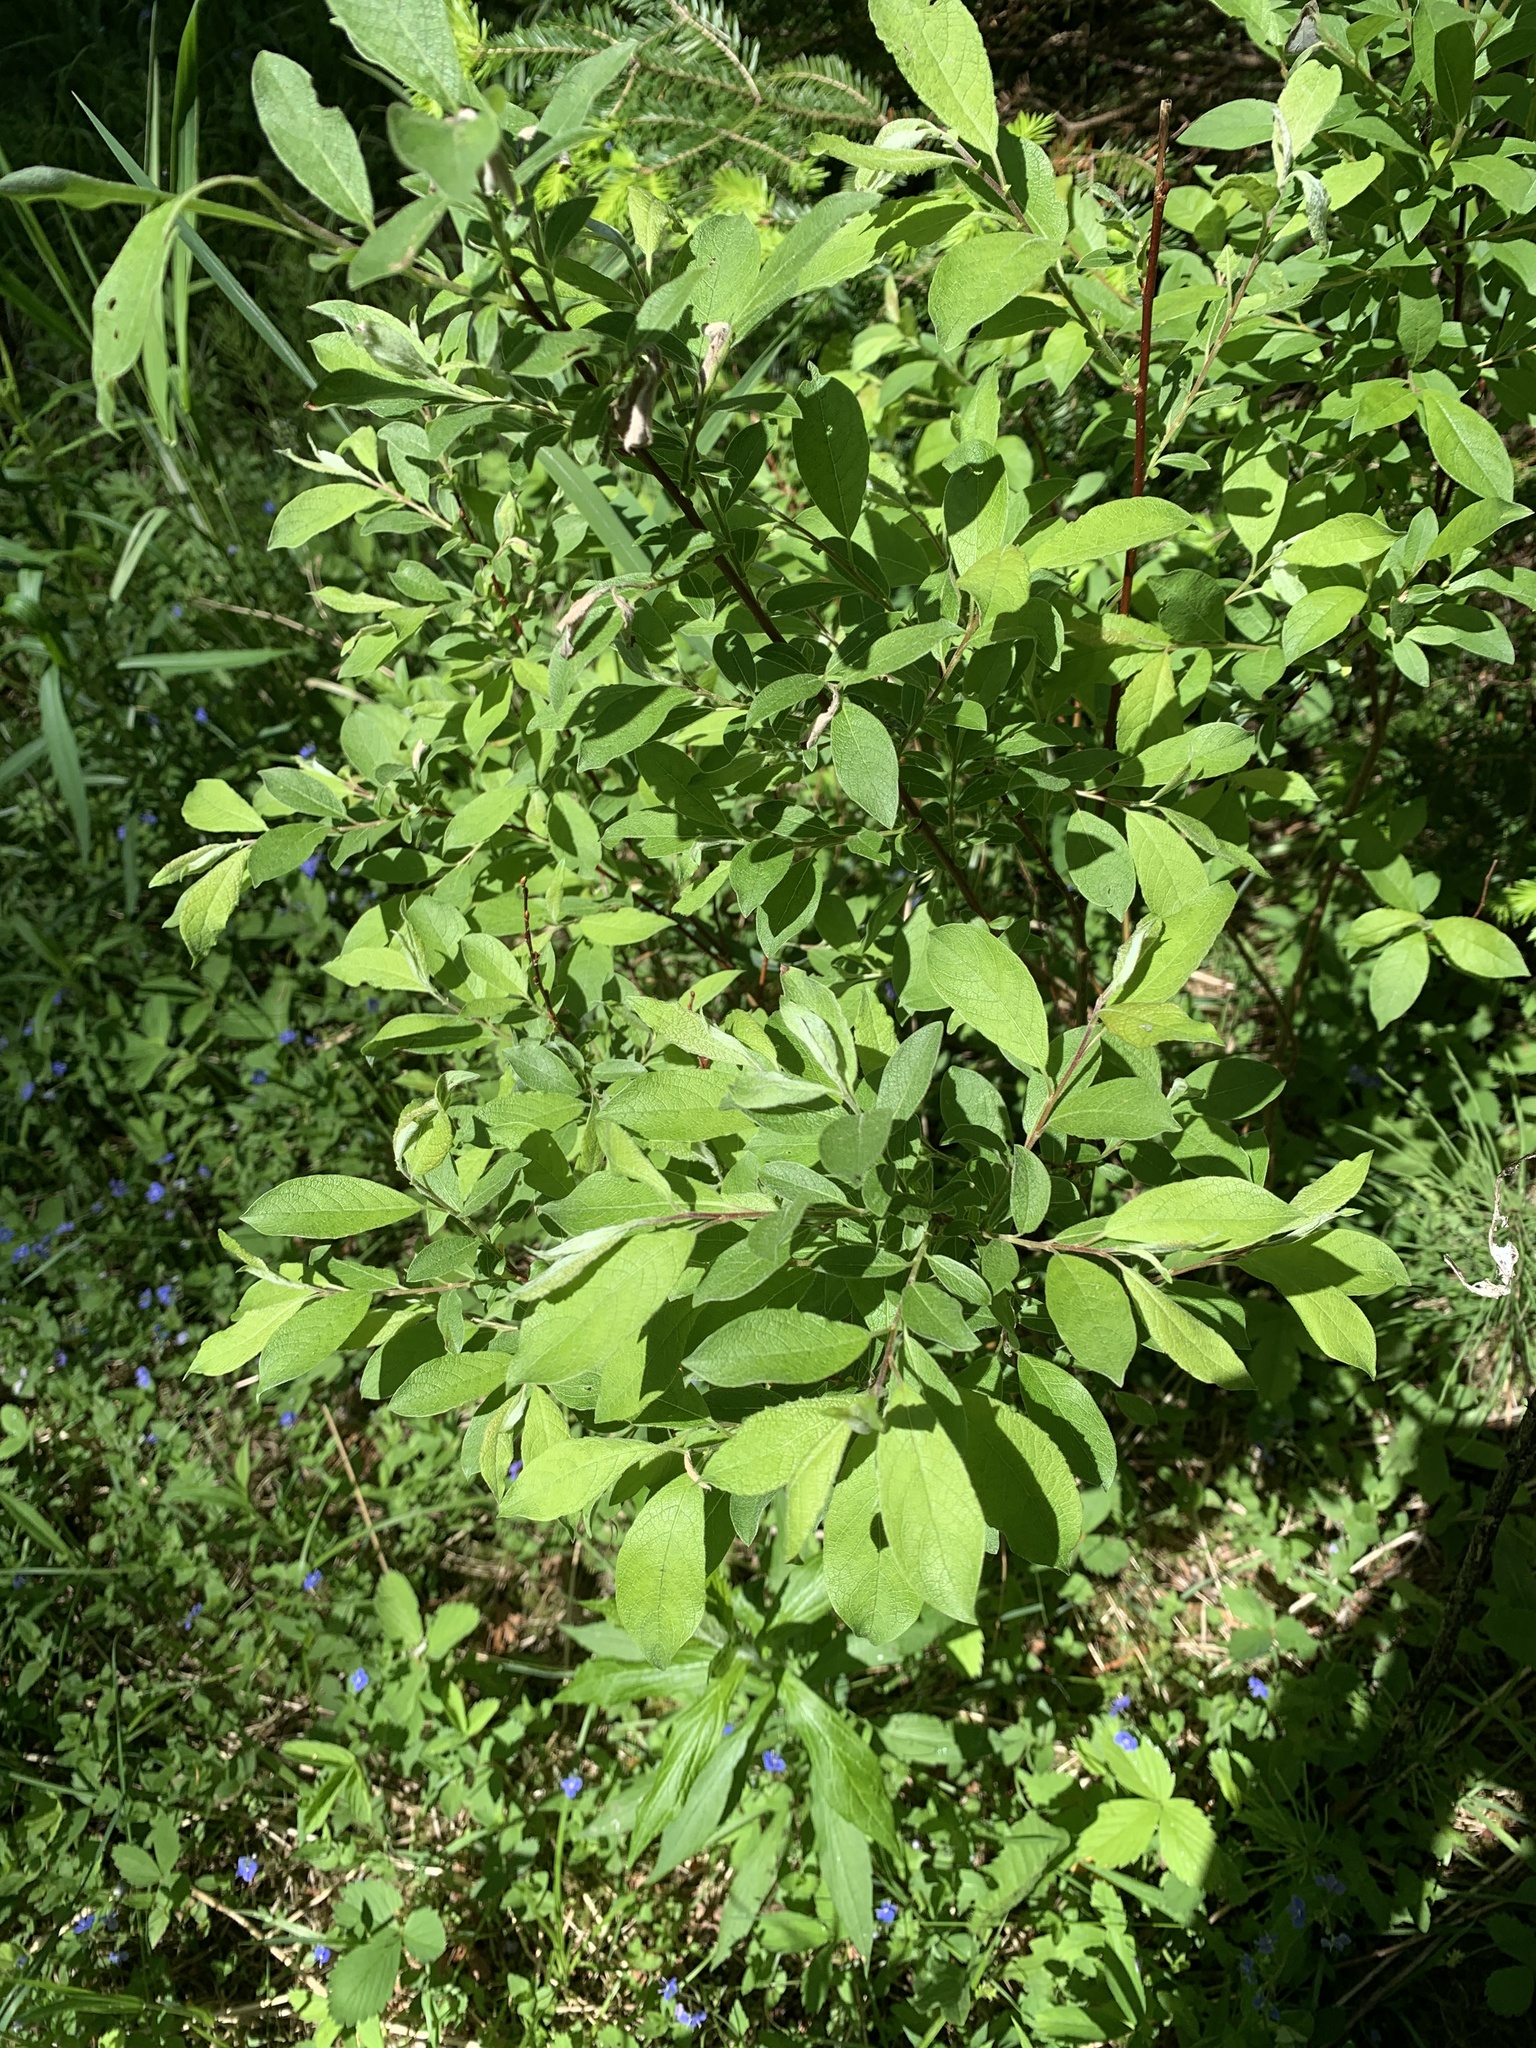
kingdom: Plantae
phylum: Tracheophyta
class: Magnoliopsida
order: Malpighiales
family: Salicaceae
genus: Salix
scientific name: Salix bebbiana
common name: Bebb's willow
